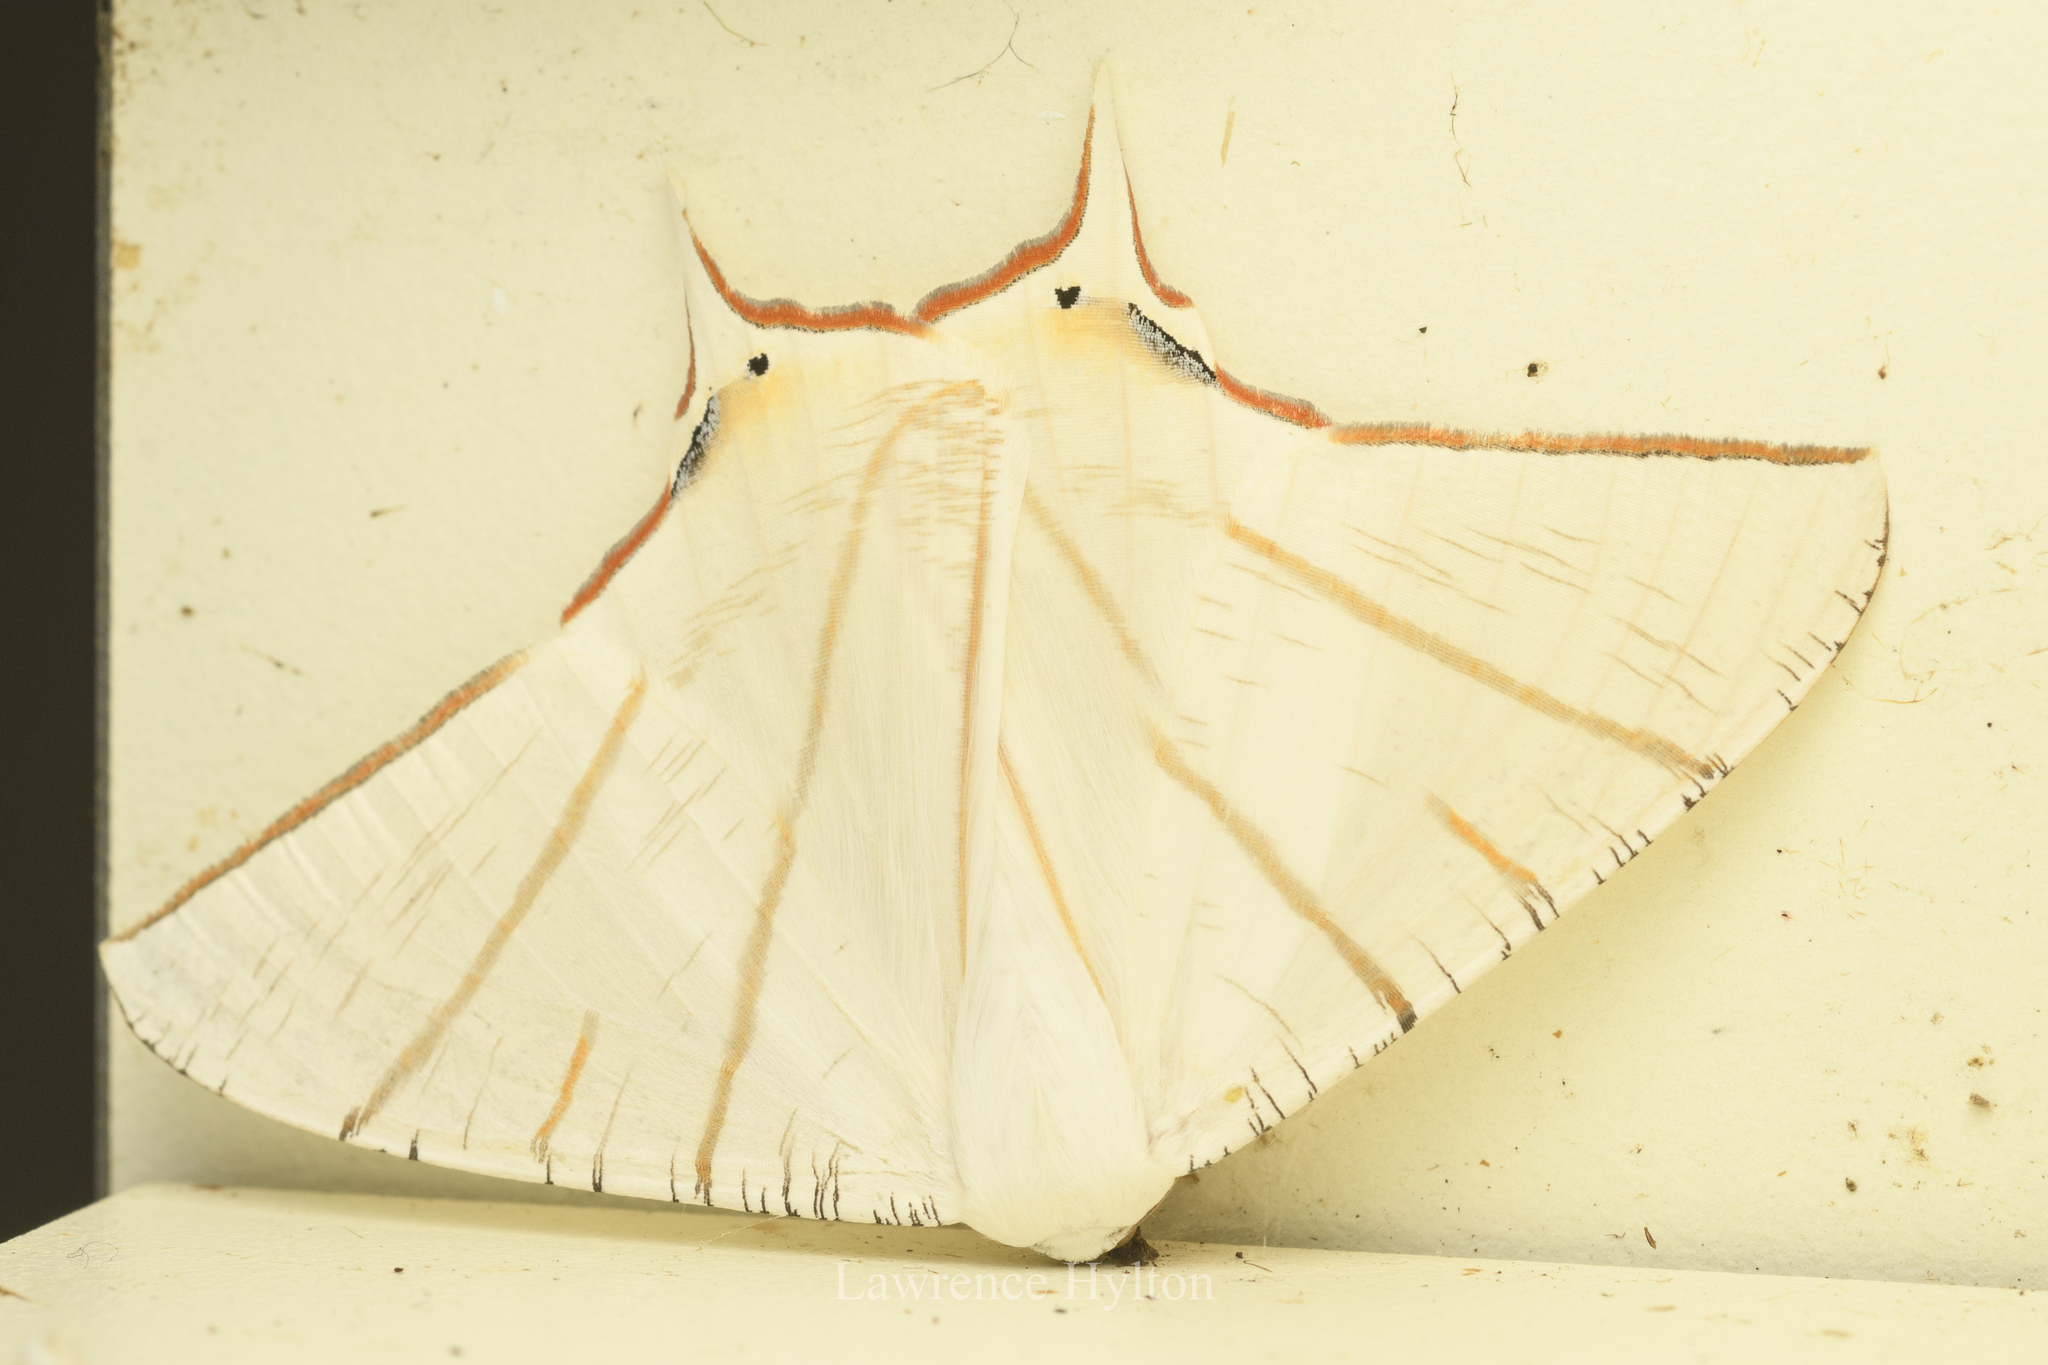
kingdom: Animalia
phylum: Arthropoda
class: Insecta
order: Lepidoptera
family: Geometridae
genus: Ourapteryx
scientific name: Ourapteryx clara
